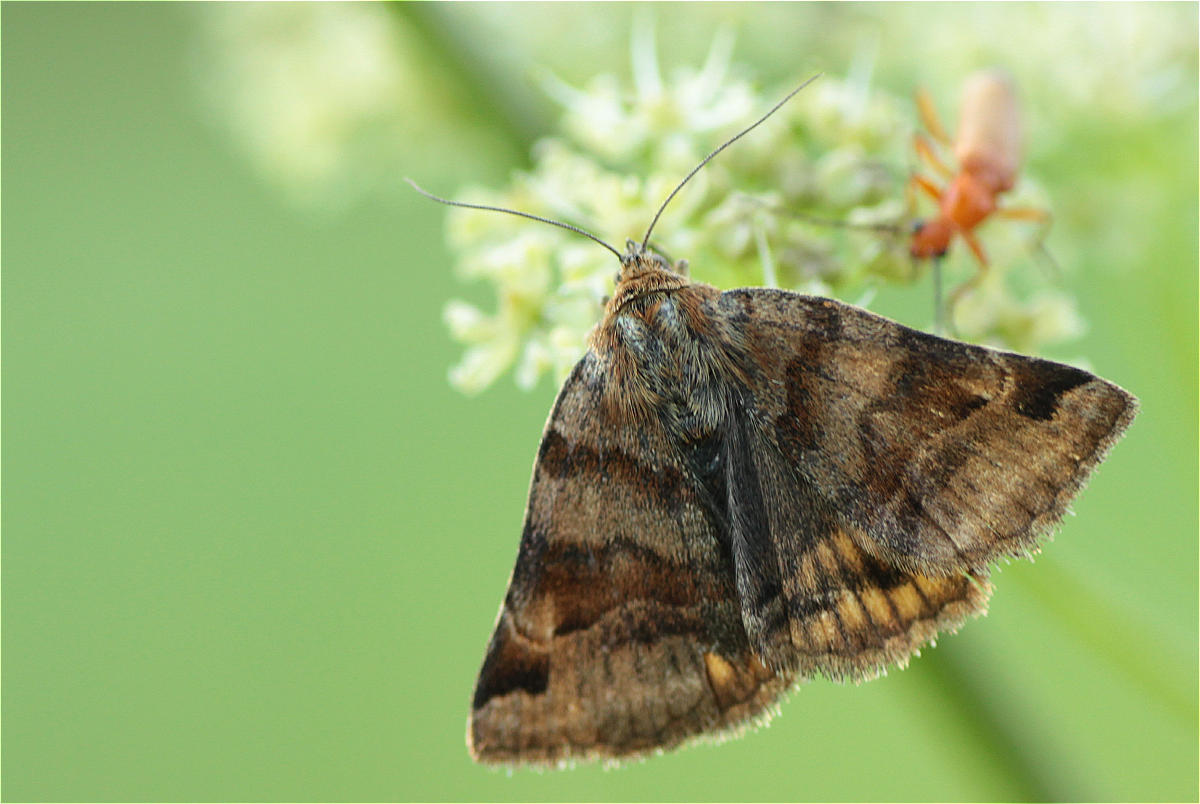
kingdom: Animalia
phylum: Arthropoda
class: Insecta
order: Lepidoptera
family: Erebidae
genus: Euclidia
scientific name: Euclidia glyphica
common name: Burnet companion
